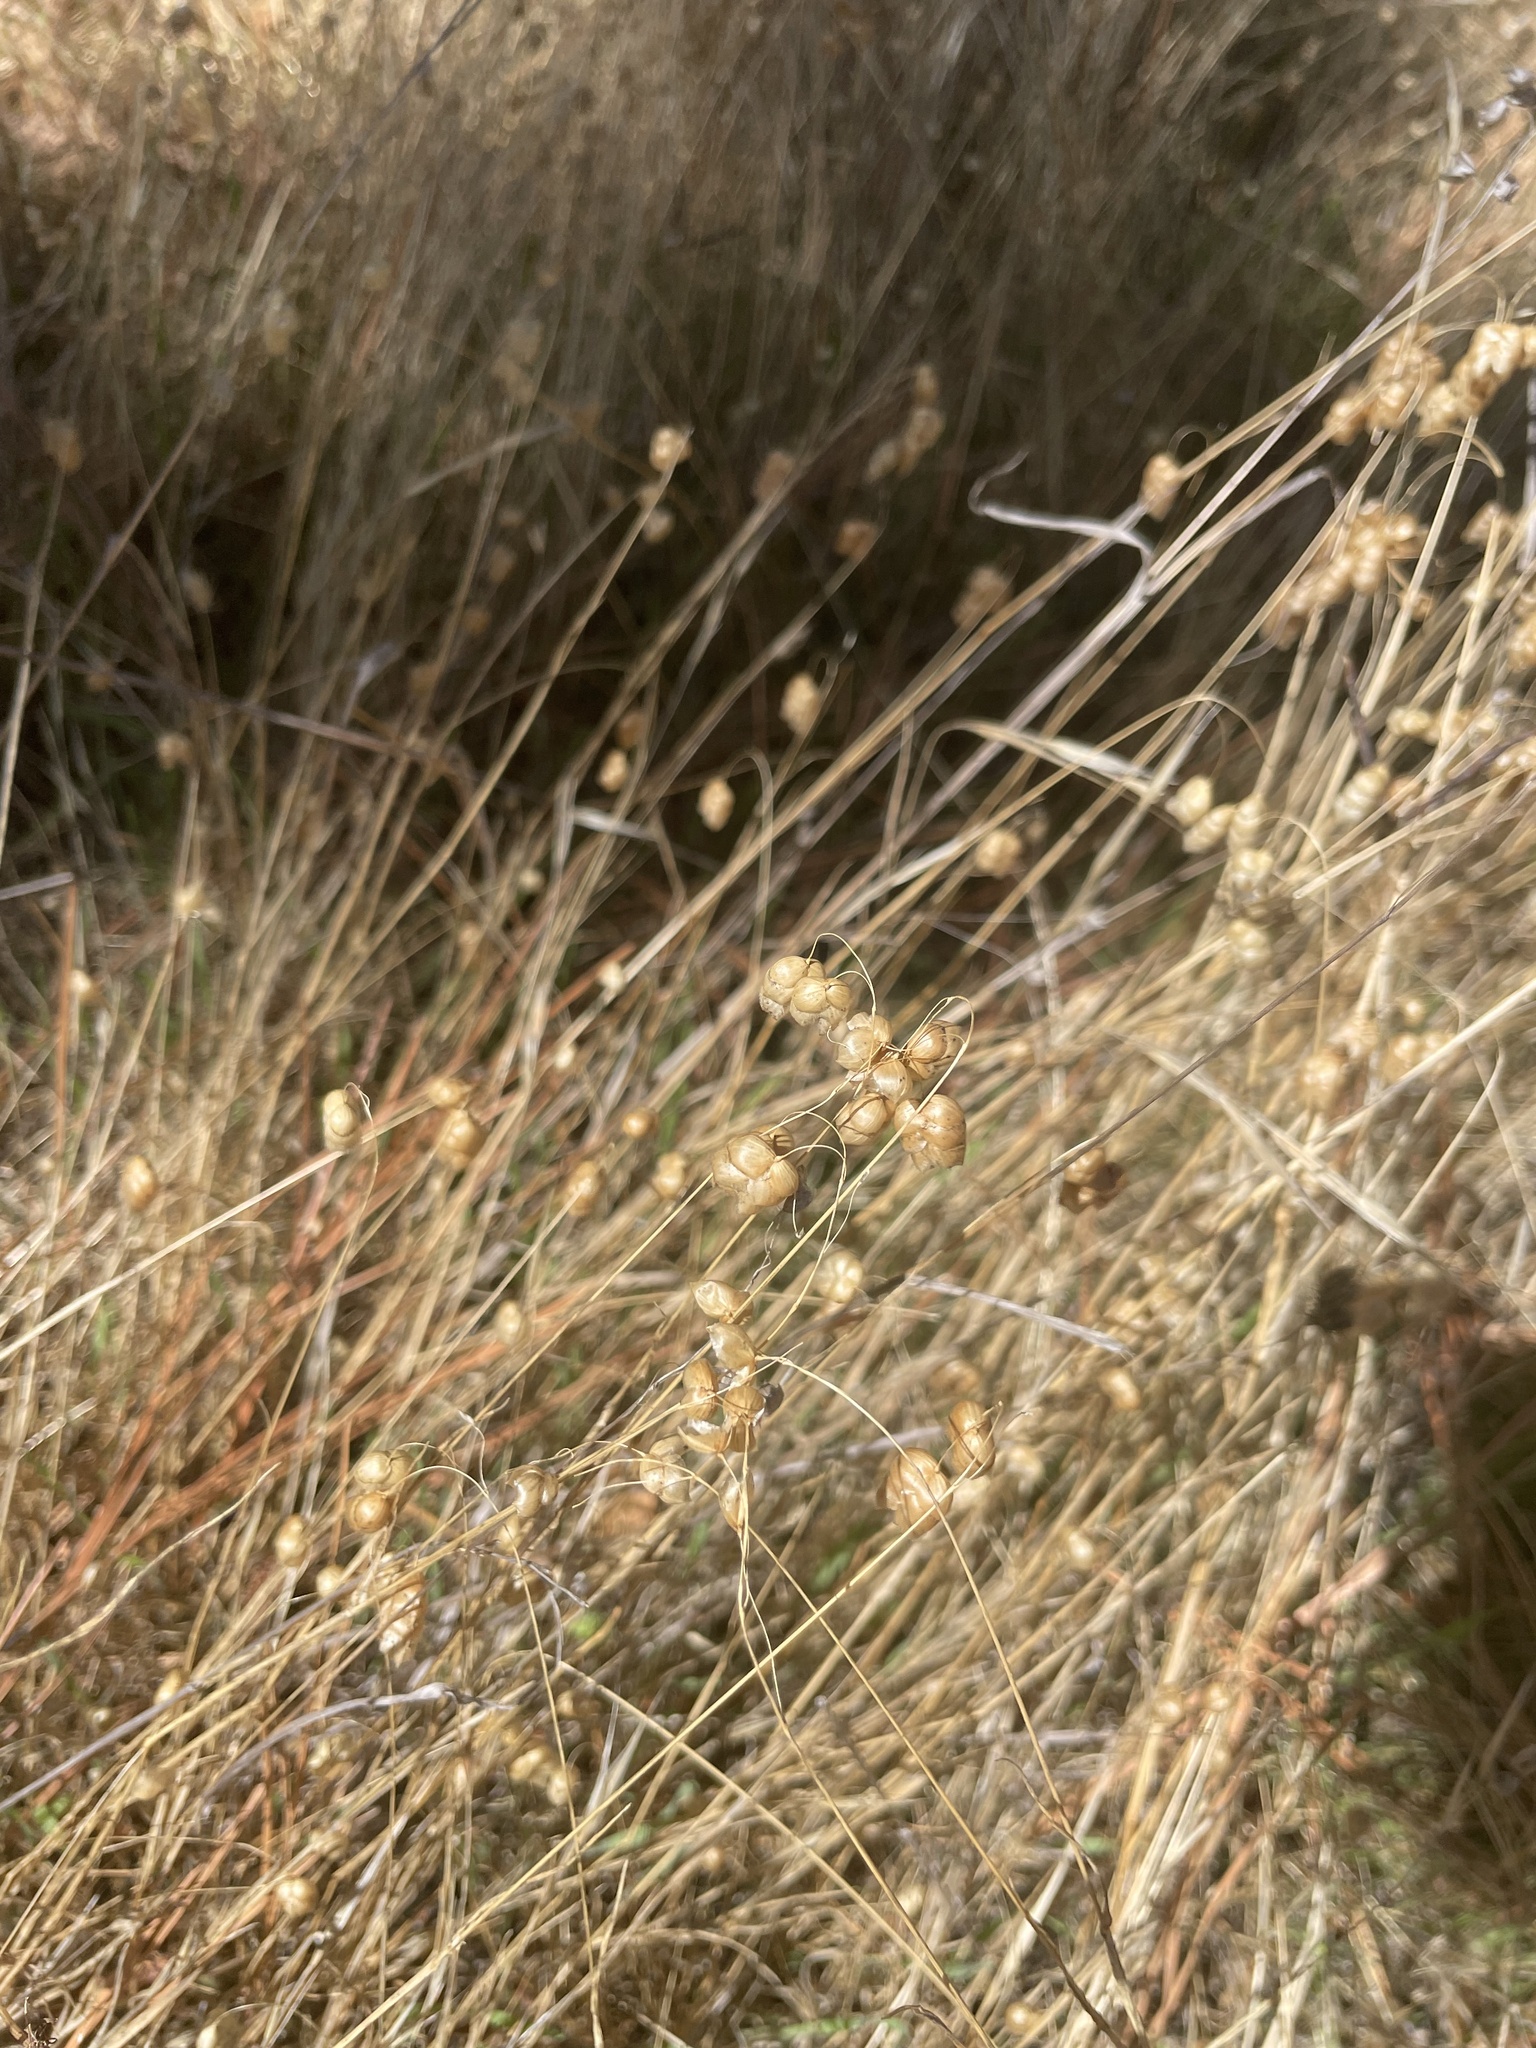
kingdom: Plantae
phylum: Tracheophyta
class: Liliopsida
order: Poales
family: Poaceae
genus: Briza
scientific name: Briza maxima
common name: Big quakinggrass
